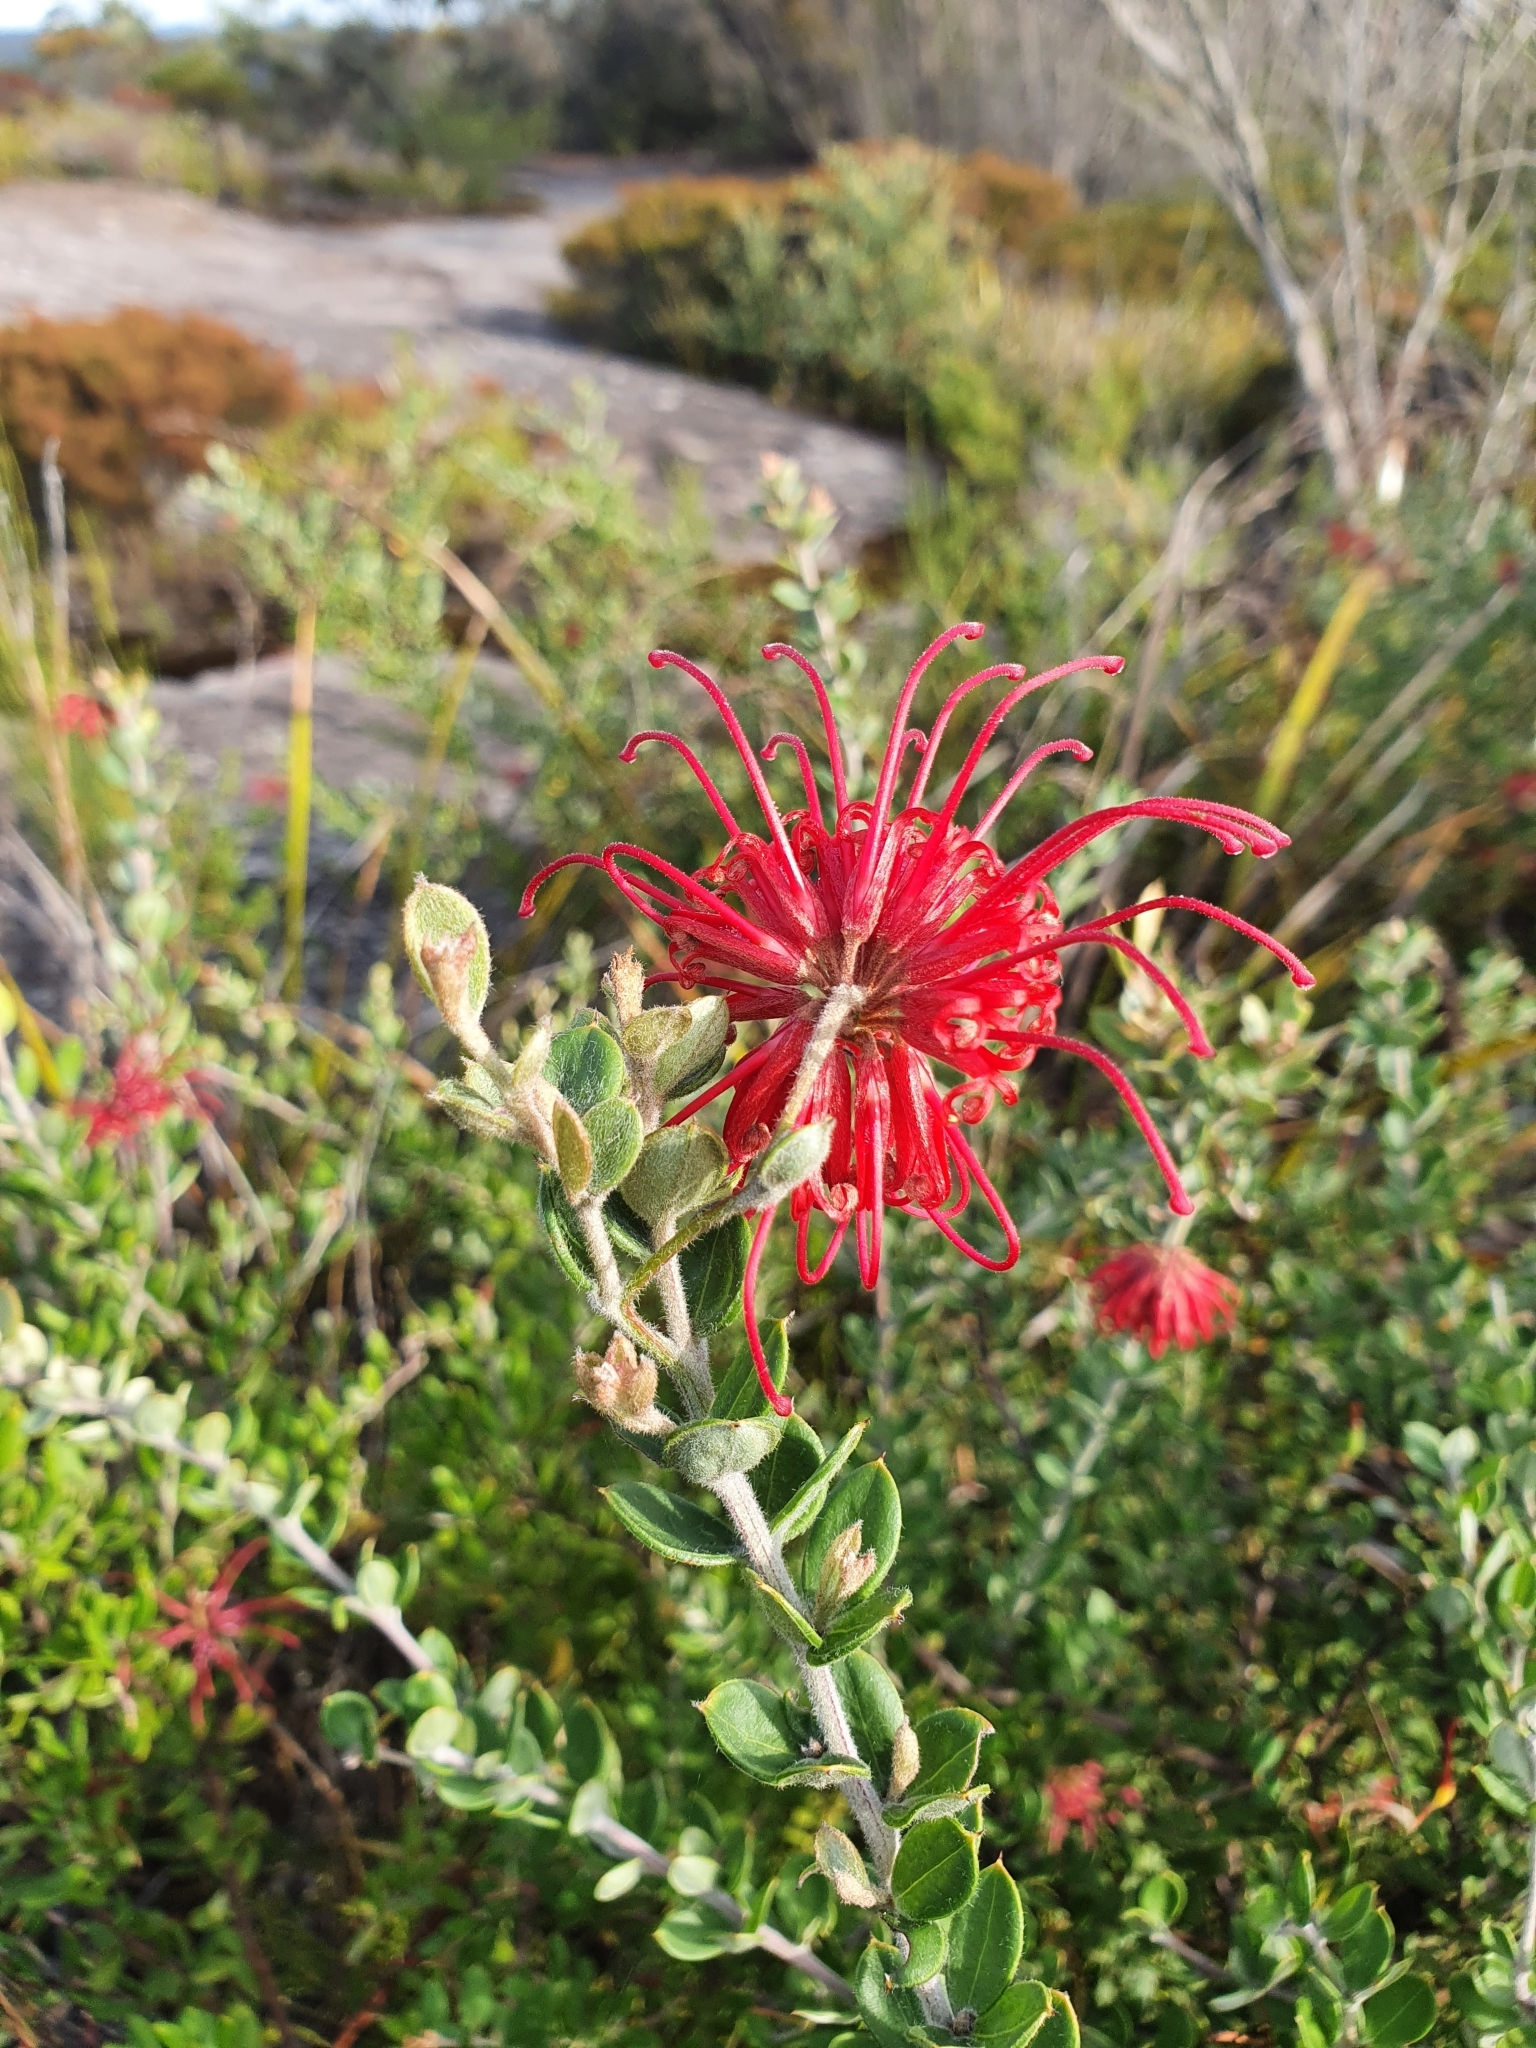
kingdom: Plantae
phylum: Tracheophyta
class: Magnoliopsida
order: Proteales
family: Proteaceae
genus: Grevillea
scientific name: Grevillea speciosa
